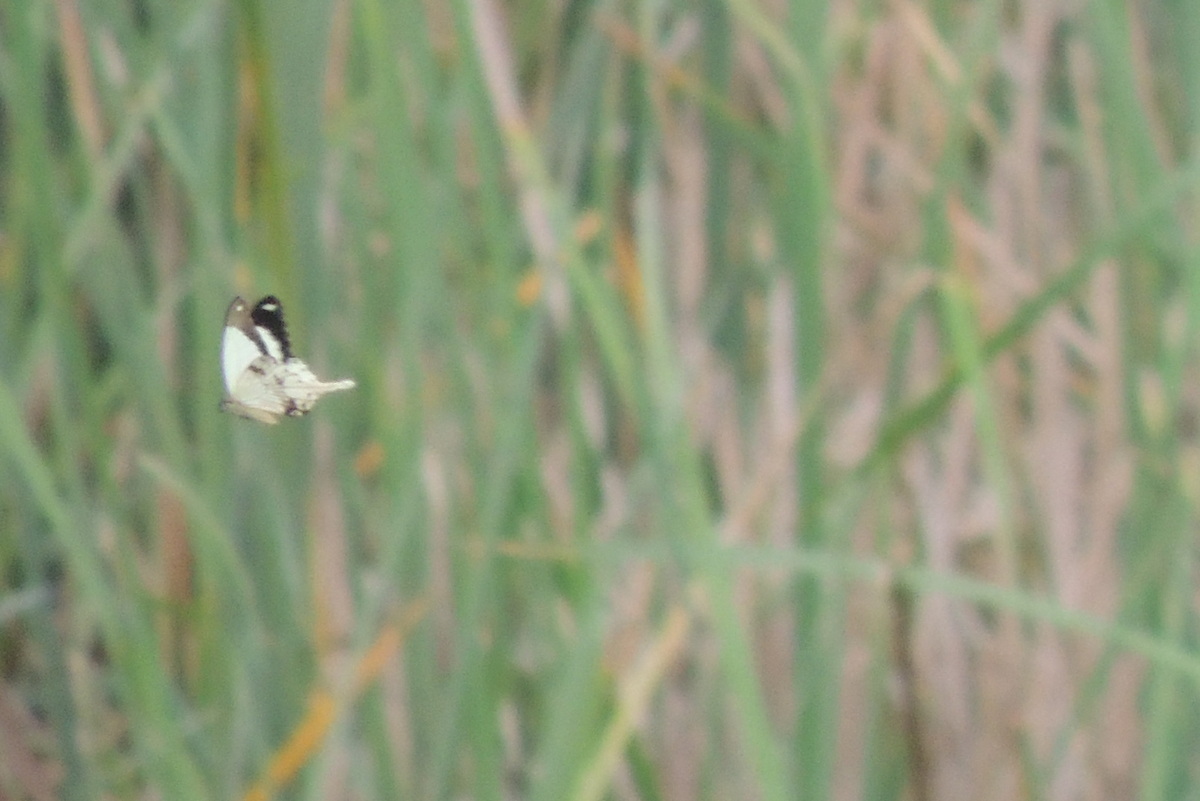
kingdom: Animalia
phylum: Arthropoda
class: Insecta
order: Lepidoptera
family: Papilionidae
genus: Papilio
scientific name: Papilio dardanus
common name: Flying handkerchief
